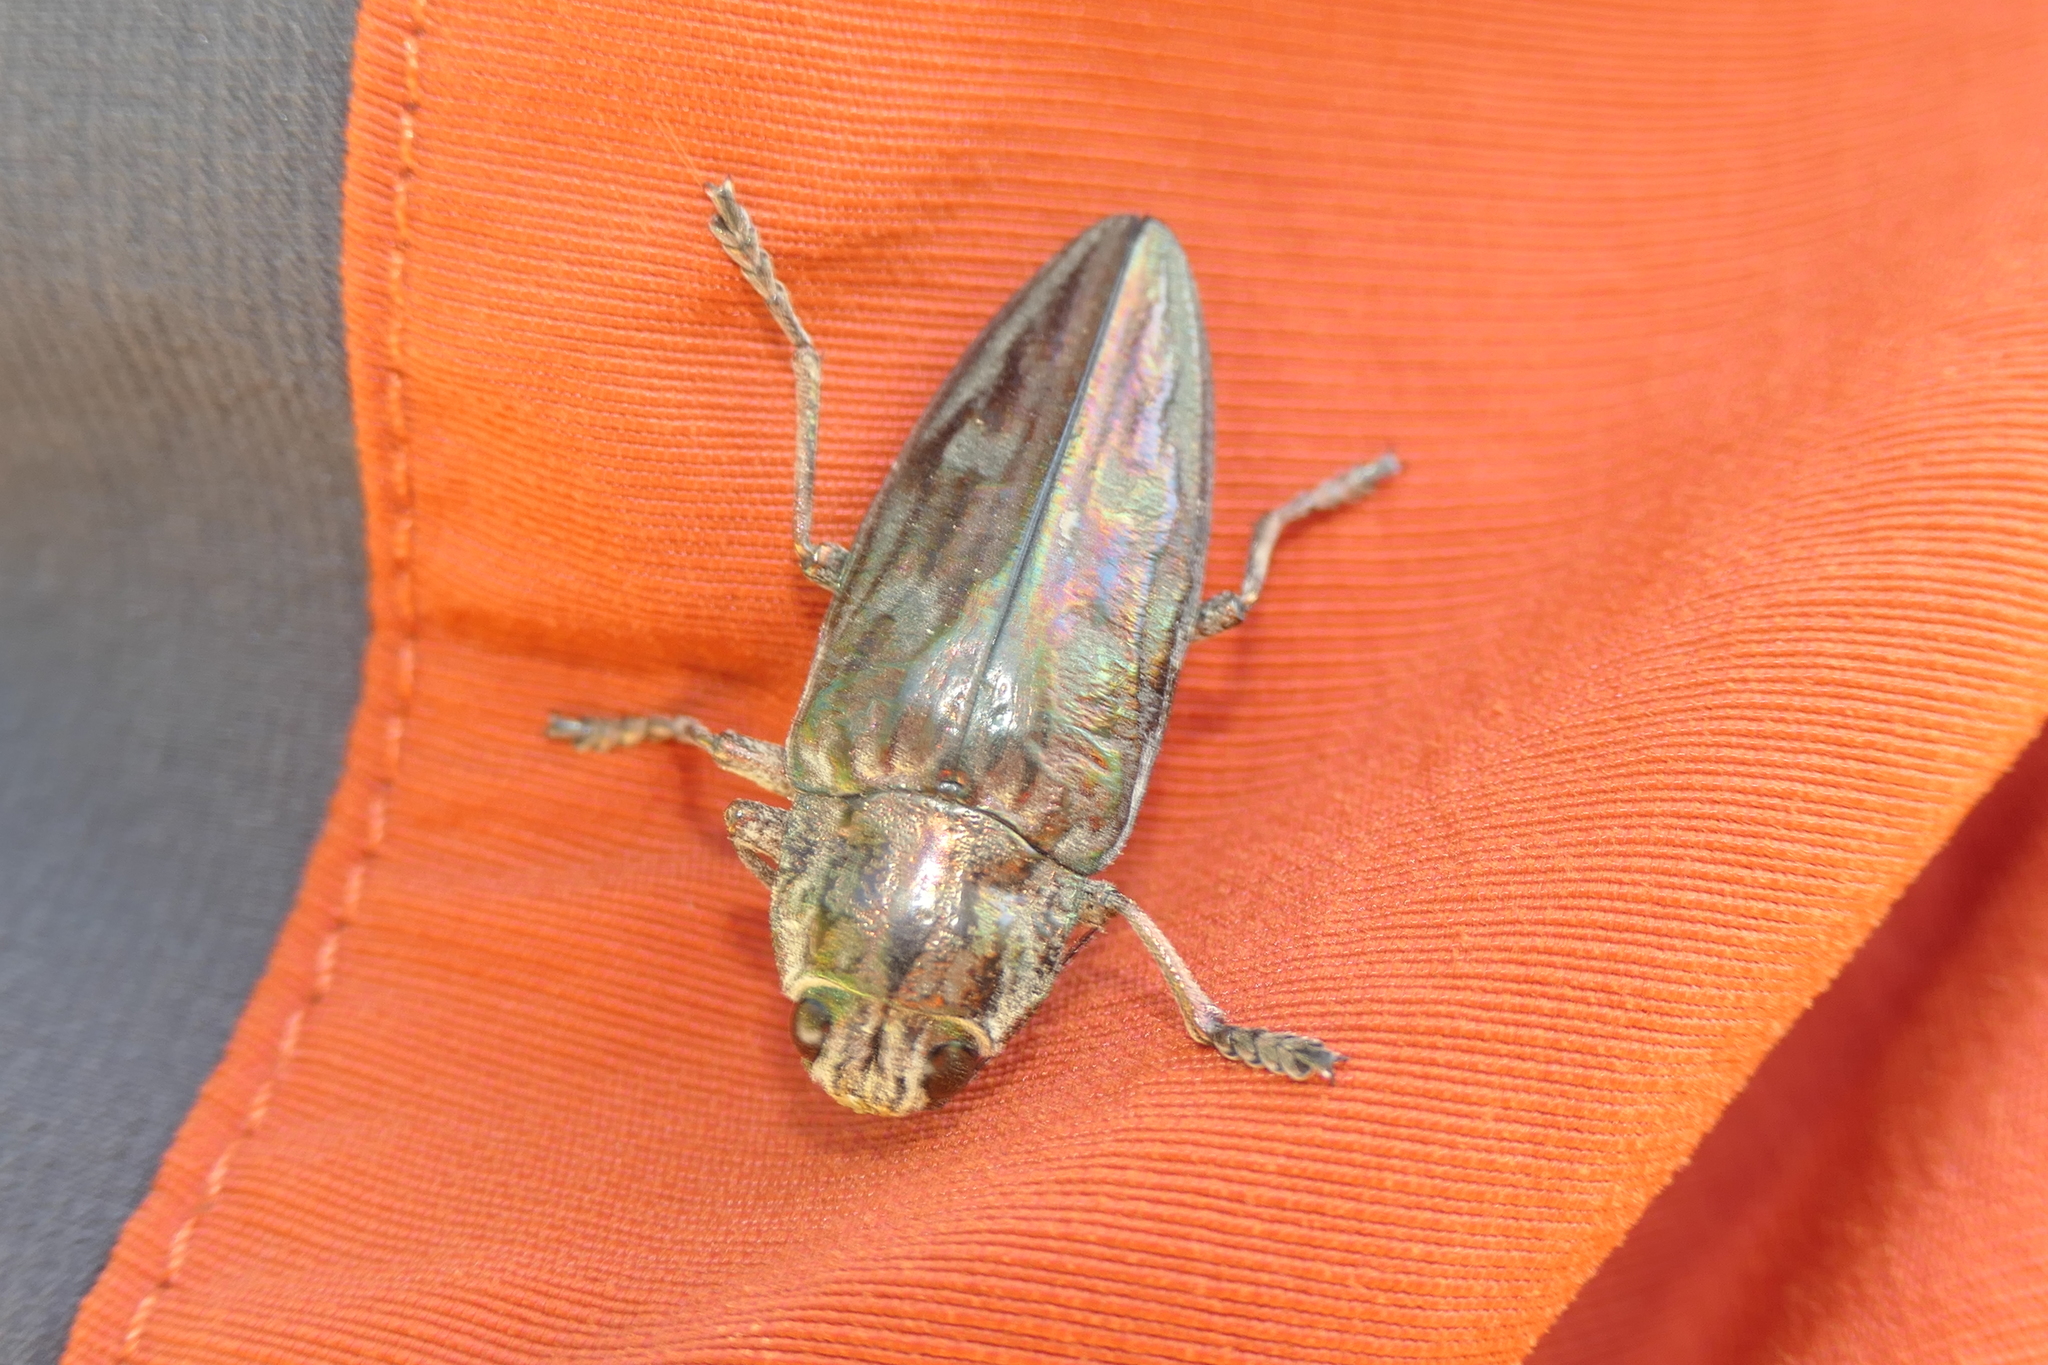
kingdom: Animalia
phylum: Arthropoda
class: Insecta
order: Coleoptera
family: Buprestidae
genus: Chalcophora
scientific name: Chalcophora massiliensis
